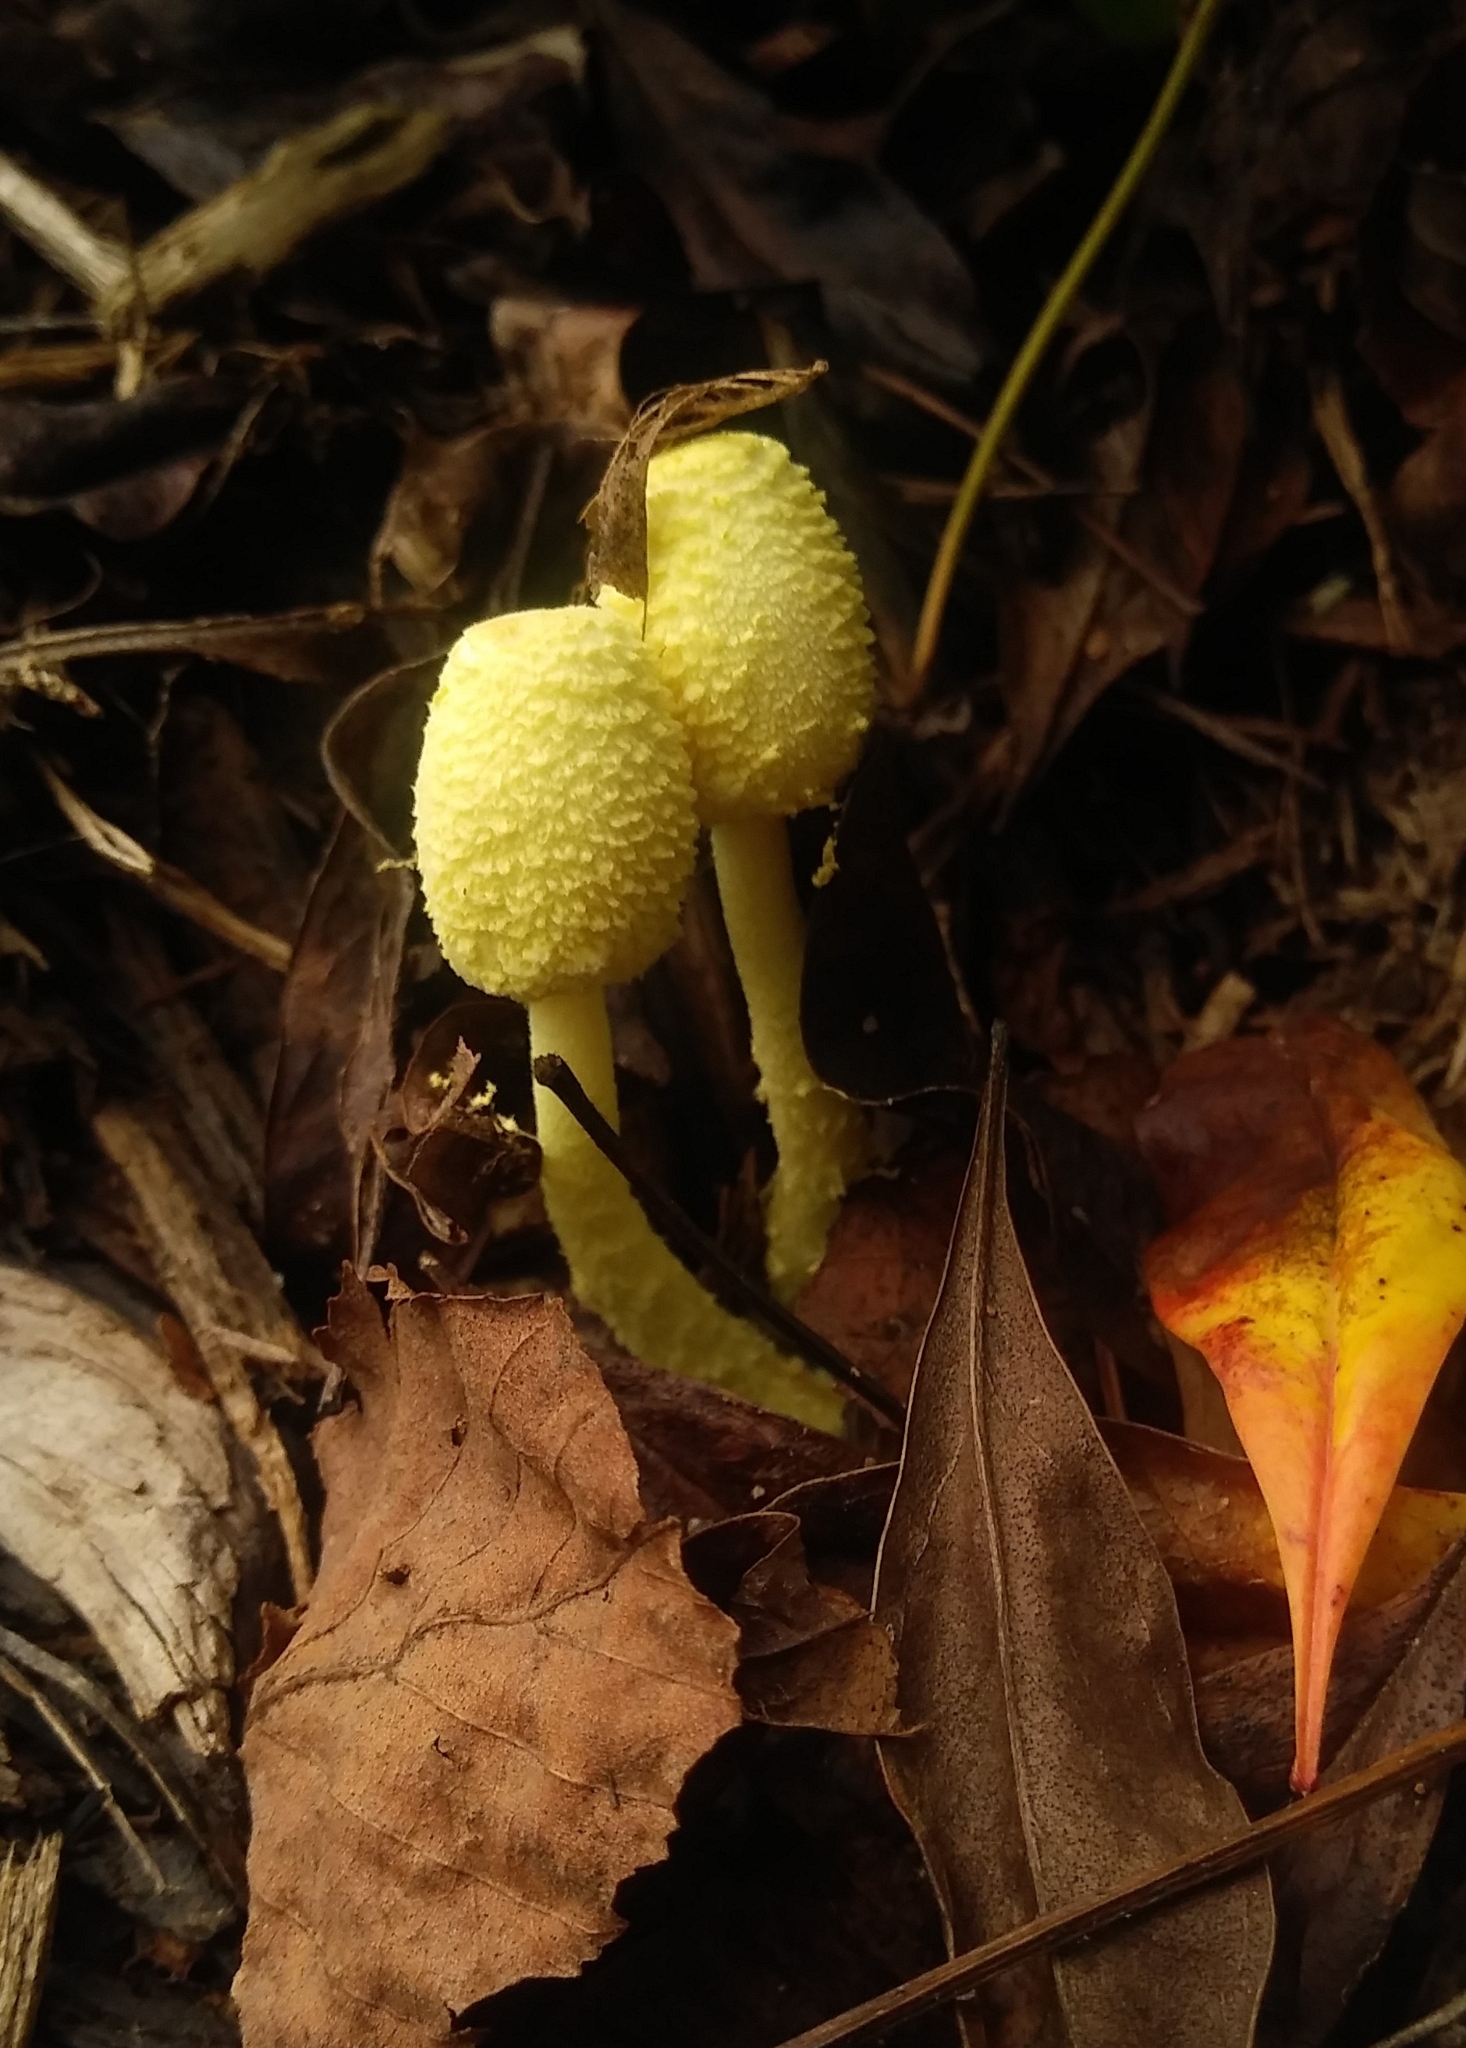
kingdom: Fungi
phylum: Basidiomycota
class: Agaricomycetes
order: Agaricales
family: Agaricaceae
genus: Leucocoprinus
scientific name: Leucocoprinus birnbaumii
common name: Plantpot dapperling
